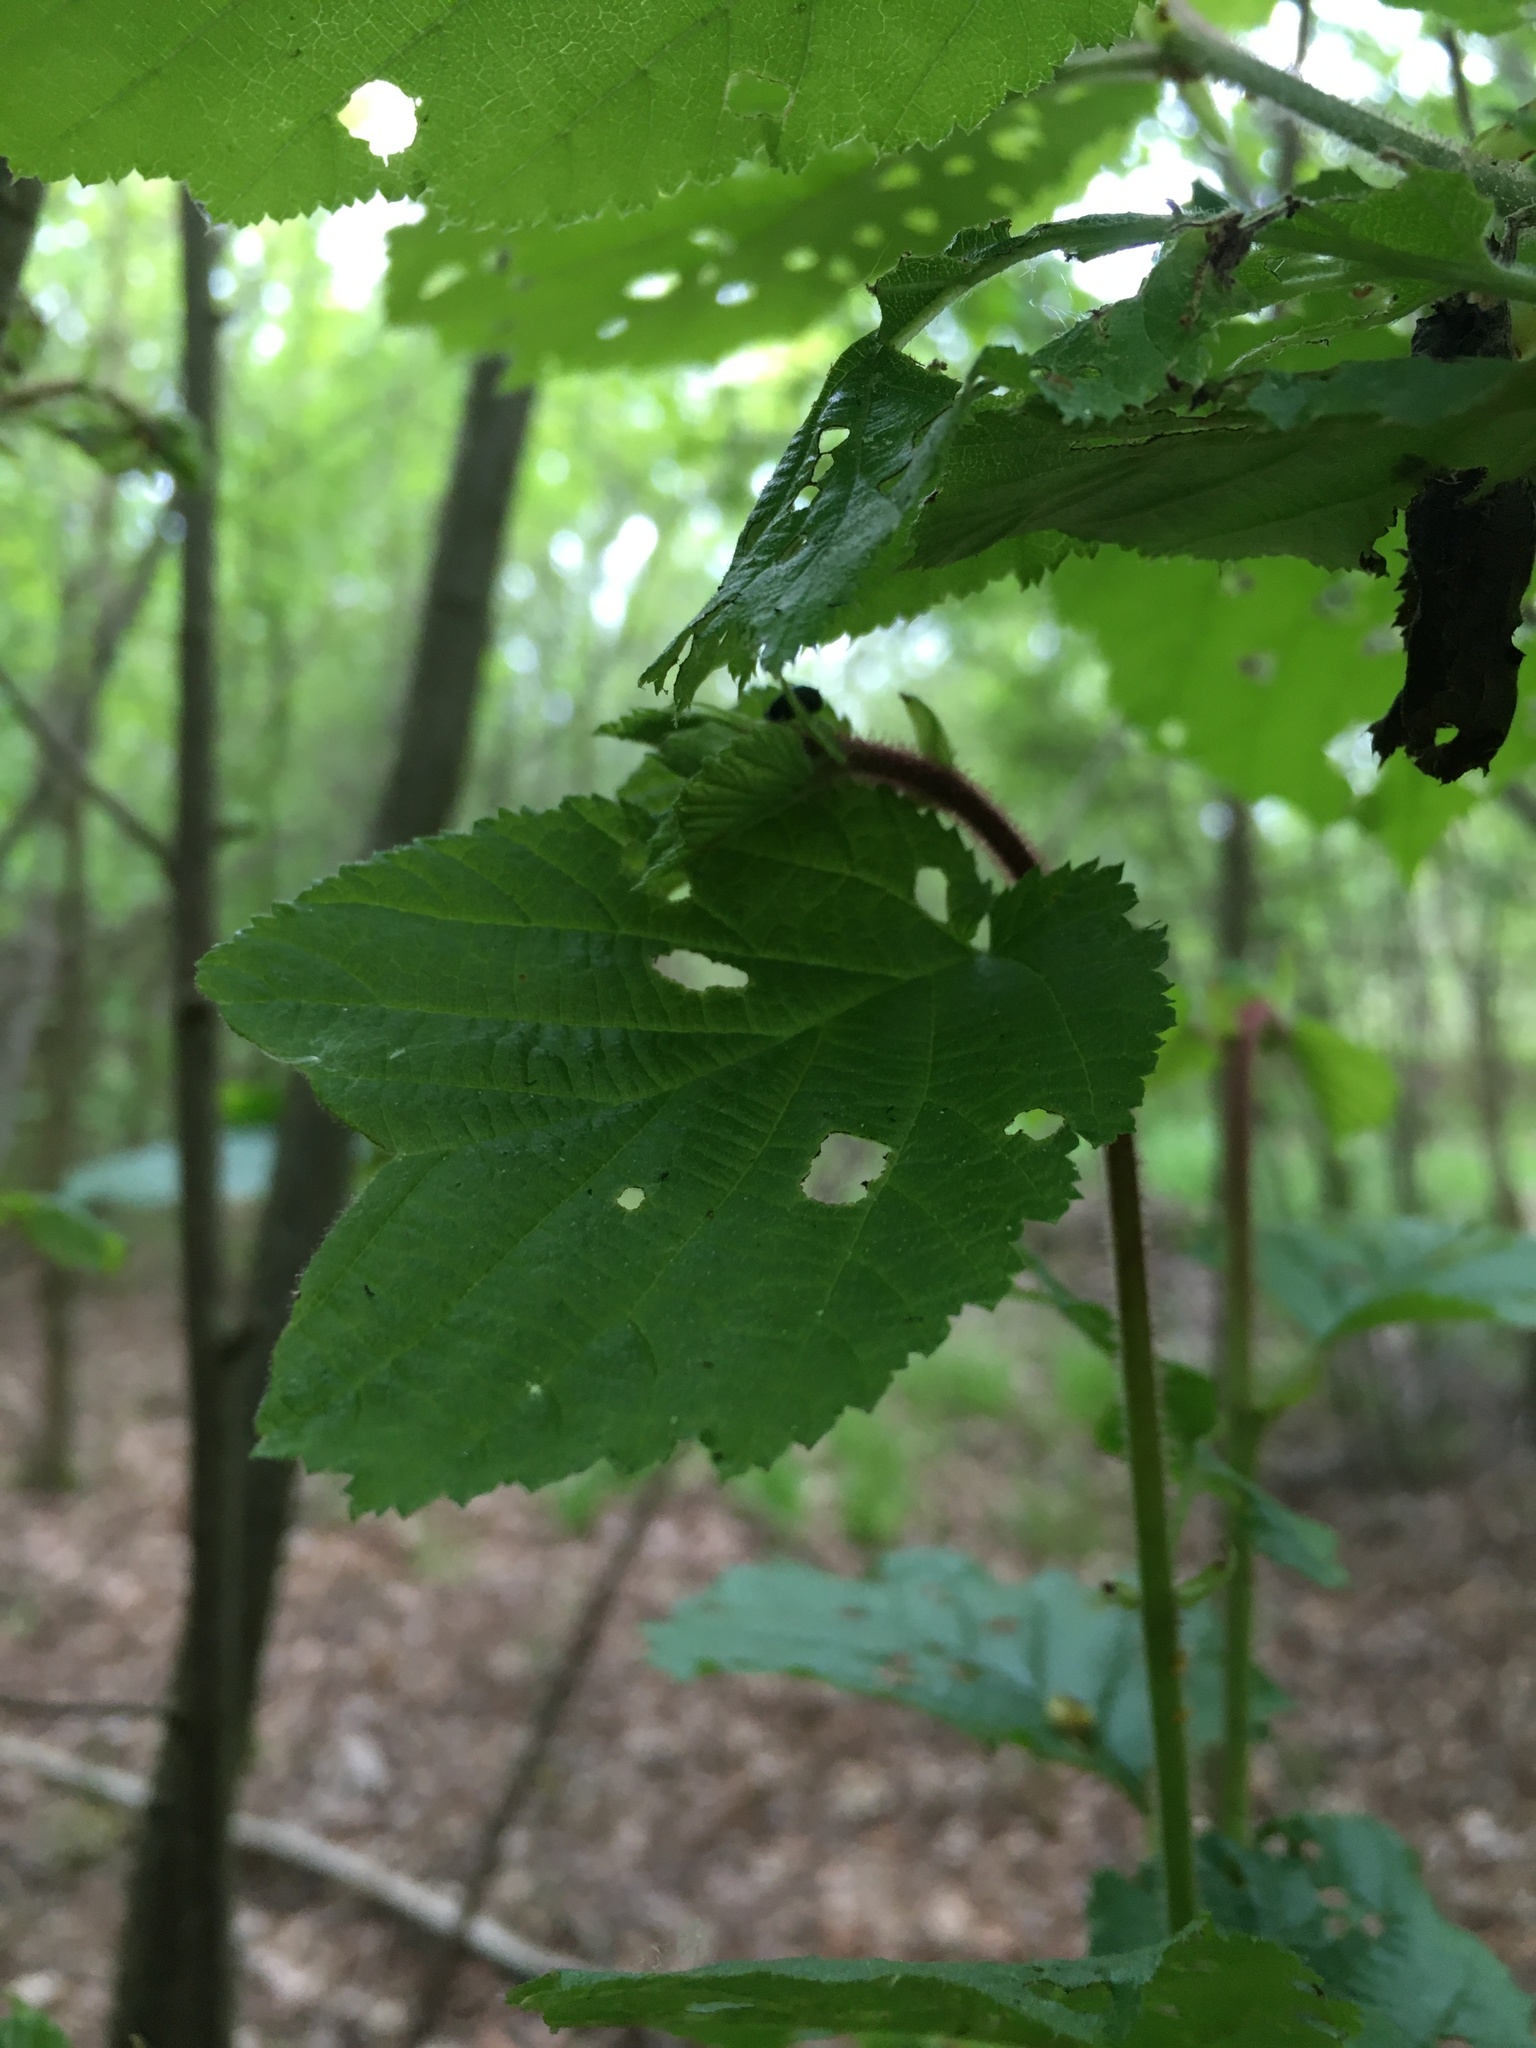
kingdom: Plantae
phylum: Tracheophyta
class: Magnoliopsida
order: Fagales
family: Betulaceae
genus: Corylus
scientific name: Corylus avellana
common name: European hazel
